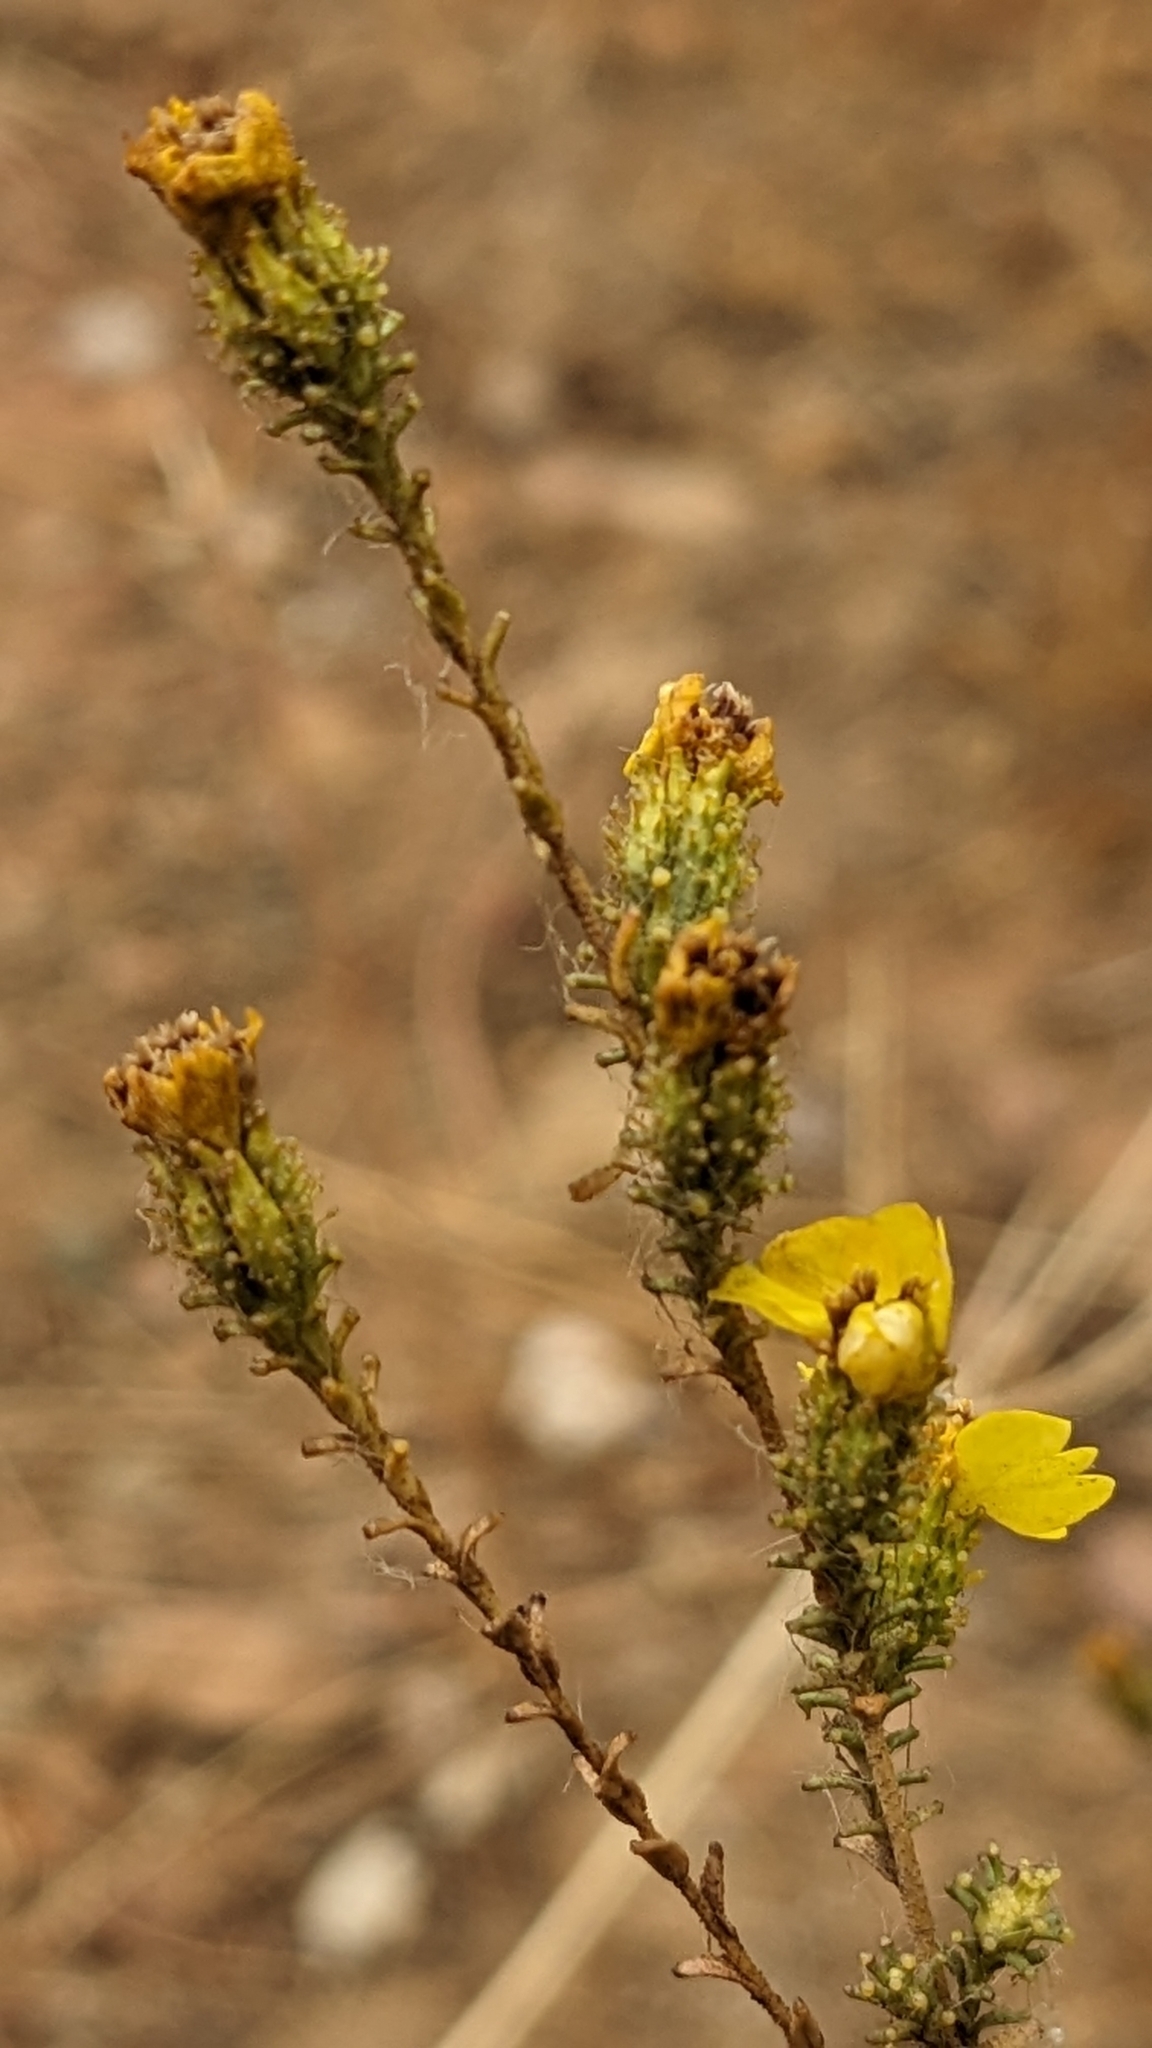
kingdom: Plantae
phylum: Tracheophyta
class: Magnoliopsida
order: Asterales
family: Asteraceae
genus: Holocarpha
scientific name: Holocarpha virgata
